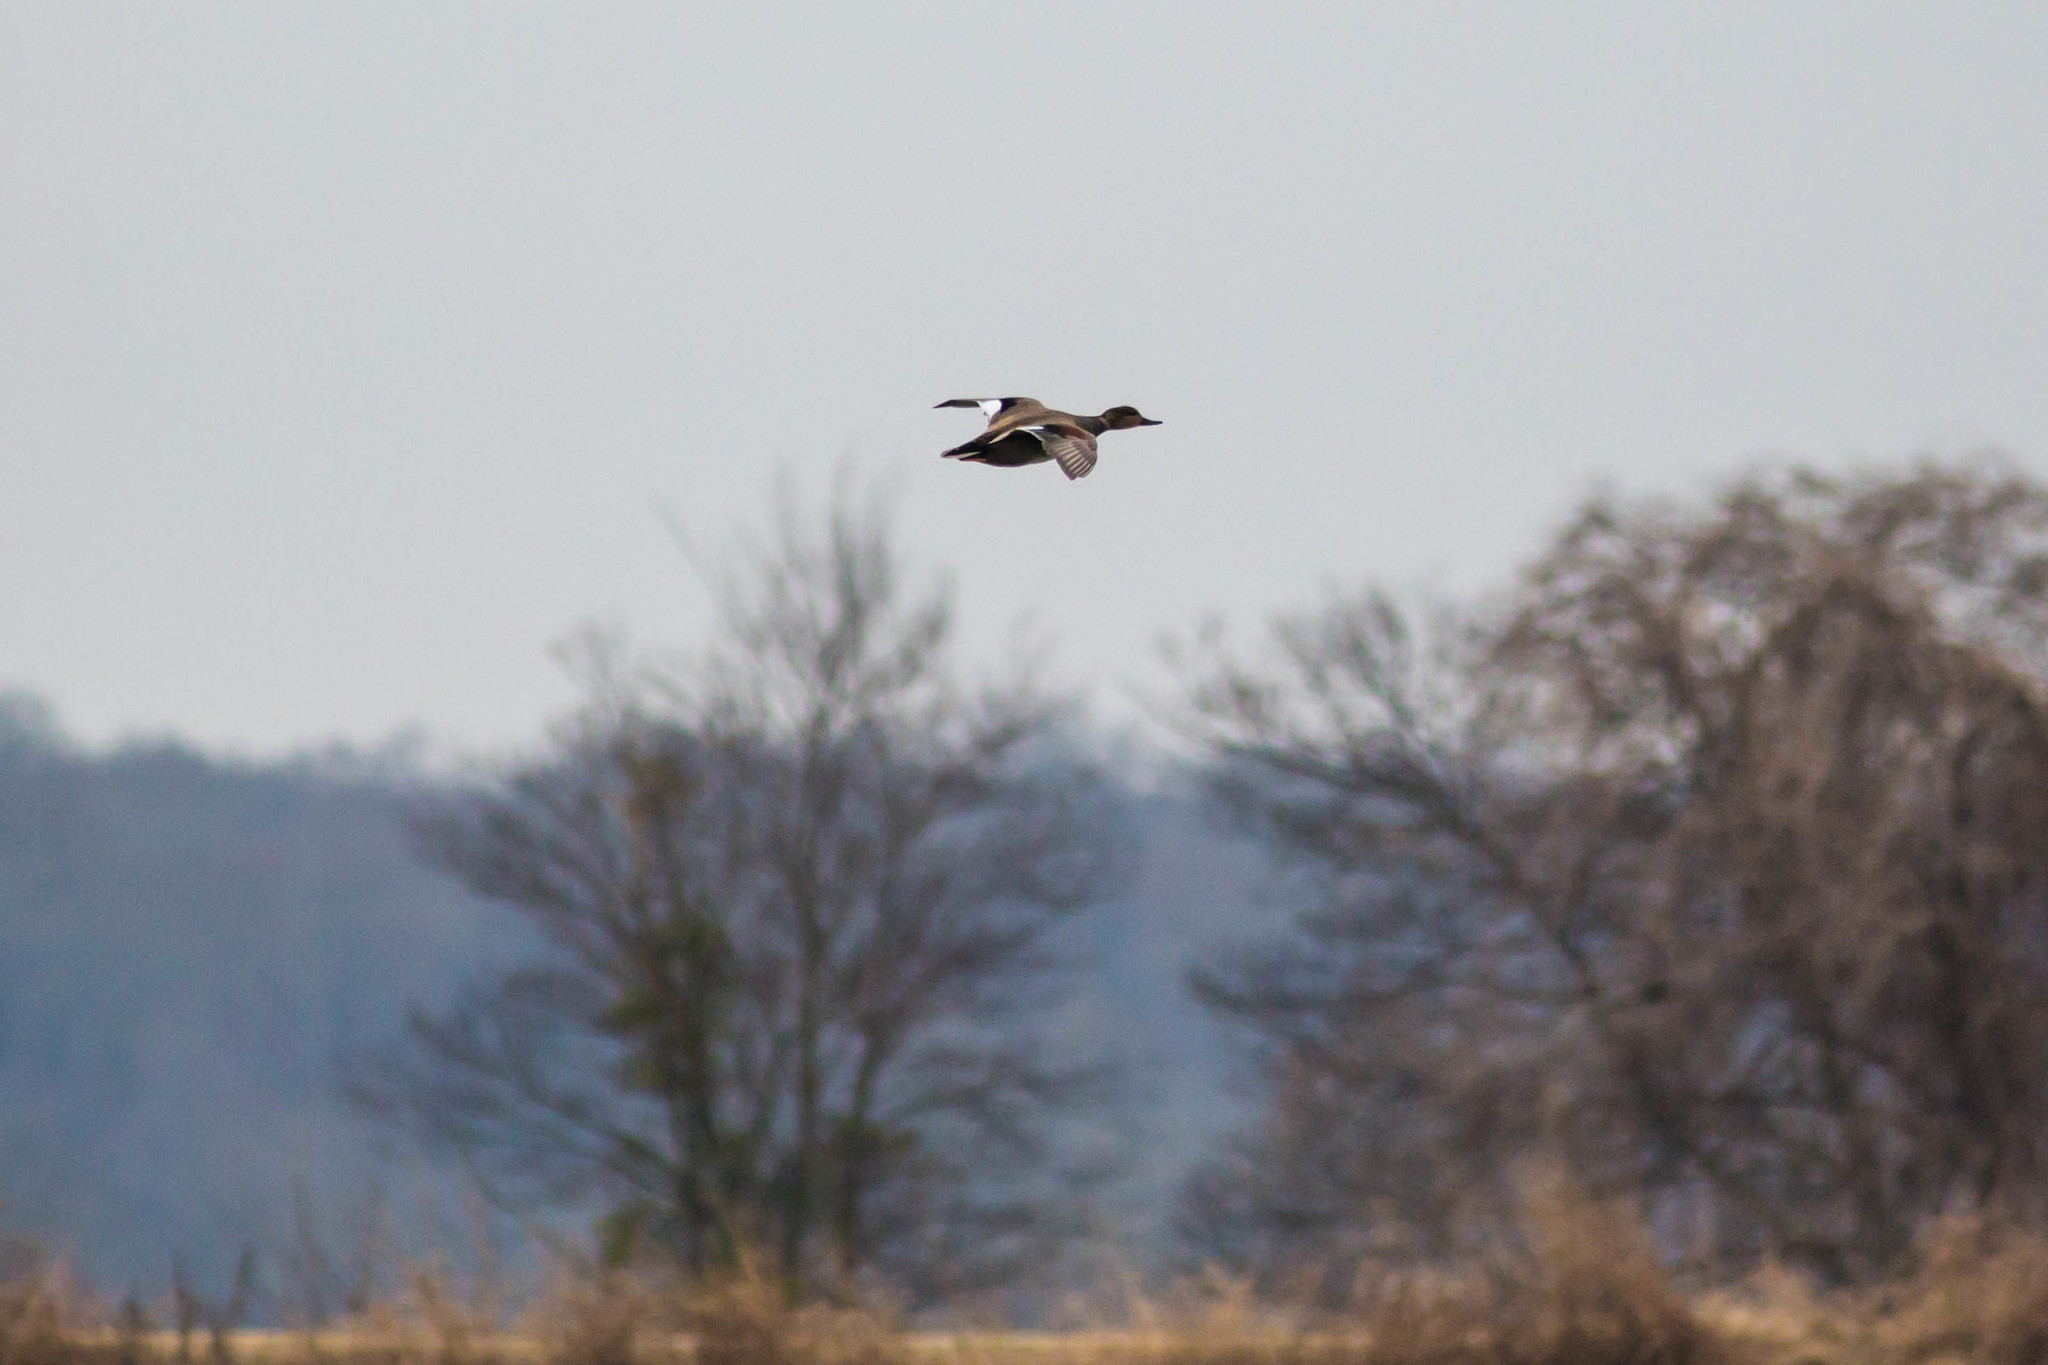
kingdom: Animalia
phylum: Chordata
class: Aves
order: Anseriformes
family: Anatidae
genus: Mareca
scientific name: Mareca strepera
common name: Gadwall
